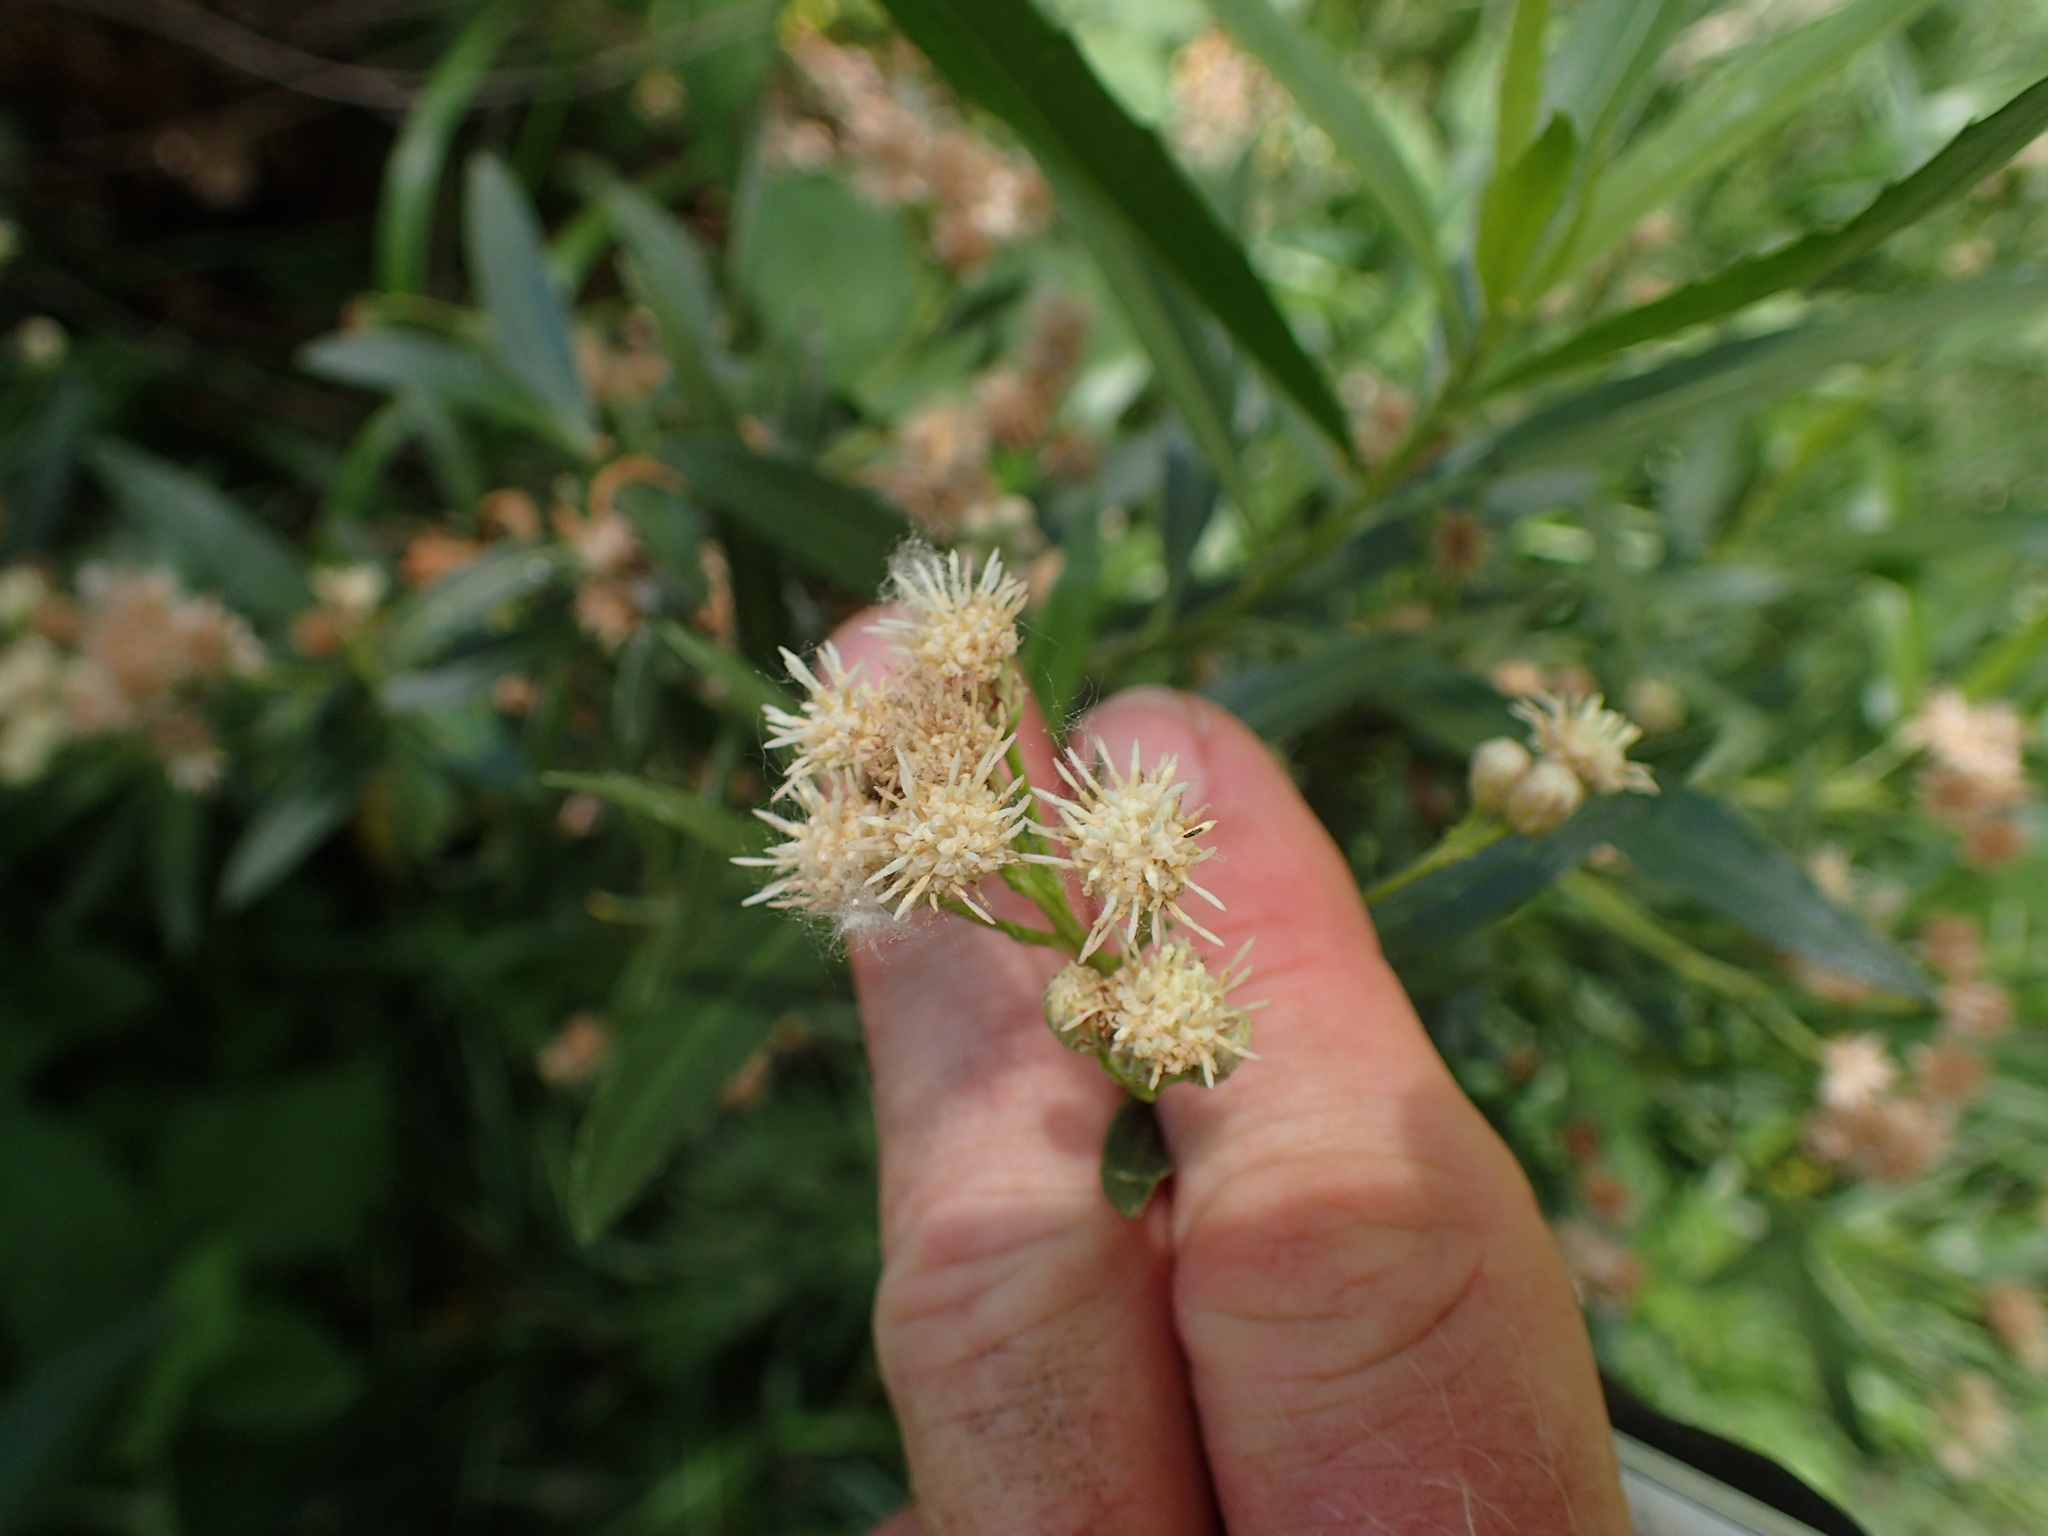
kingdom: Plantae
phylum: Tracheophyta
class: Magnoliopsida
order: Asterales
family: Asteraceae
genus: Baccharis
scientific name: Baccharis salicifolia
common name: Sticky baccharis
